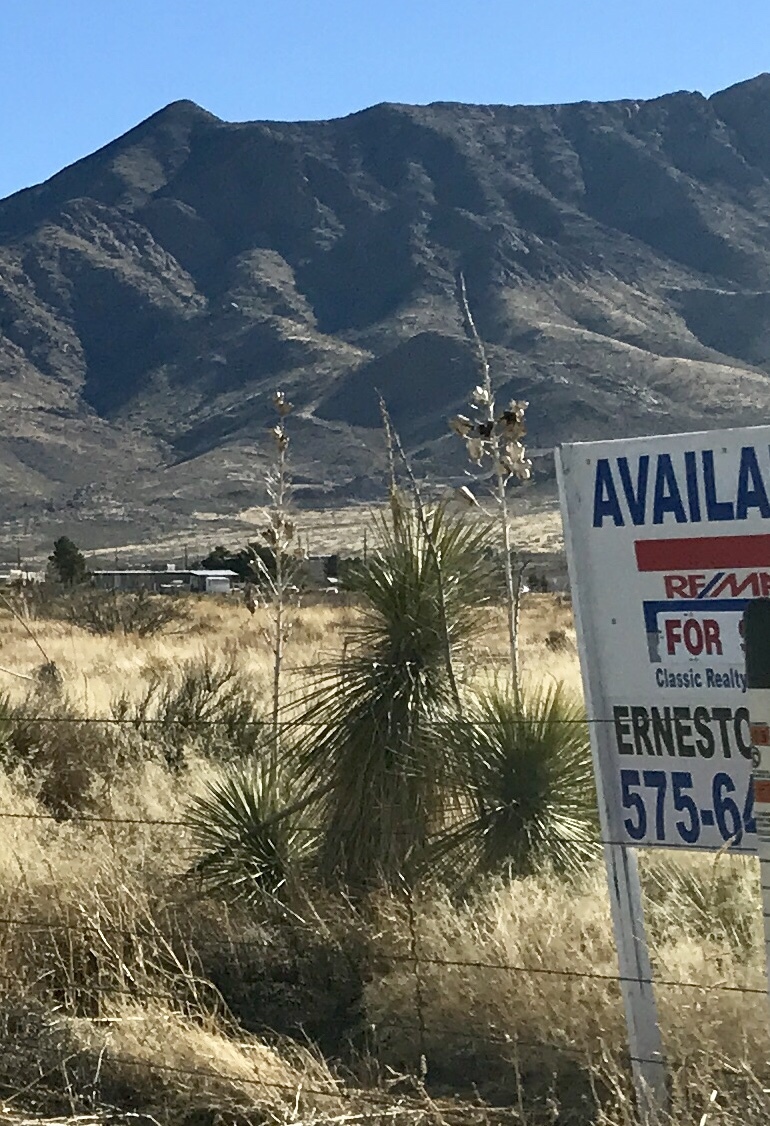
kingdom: Plantae
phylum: Tracheophyta
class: Liliopsida
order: Asparagales
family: Asparagaceae
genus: Yucca
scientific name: Yucca elata
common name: Palmella
